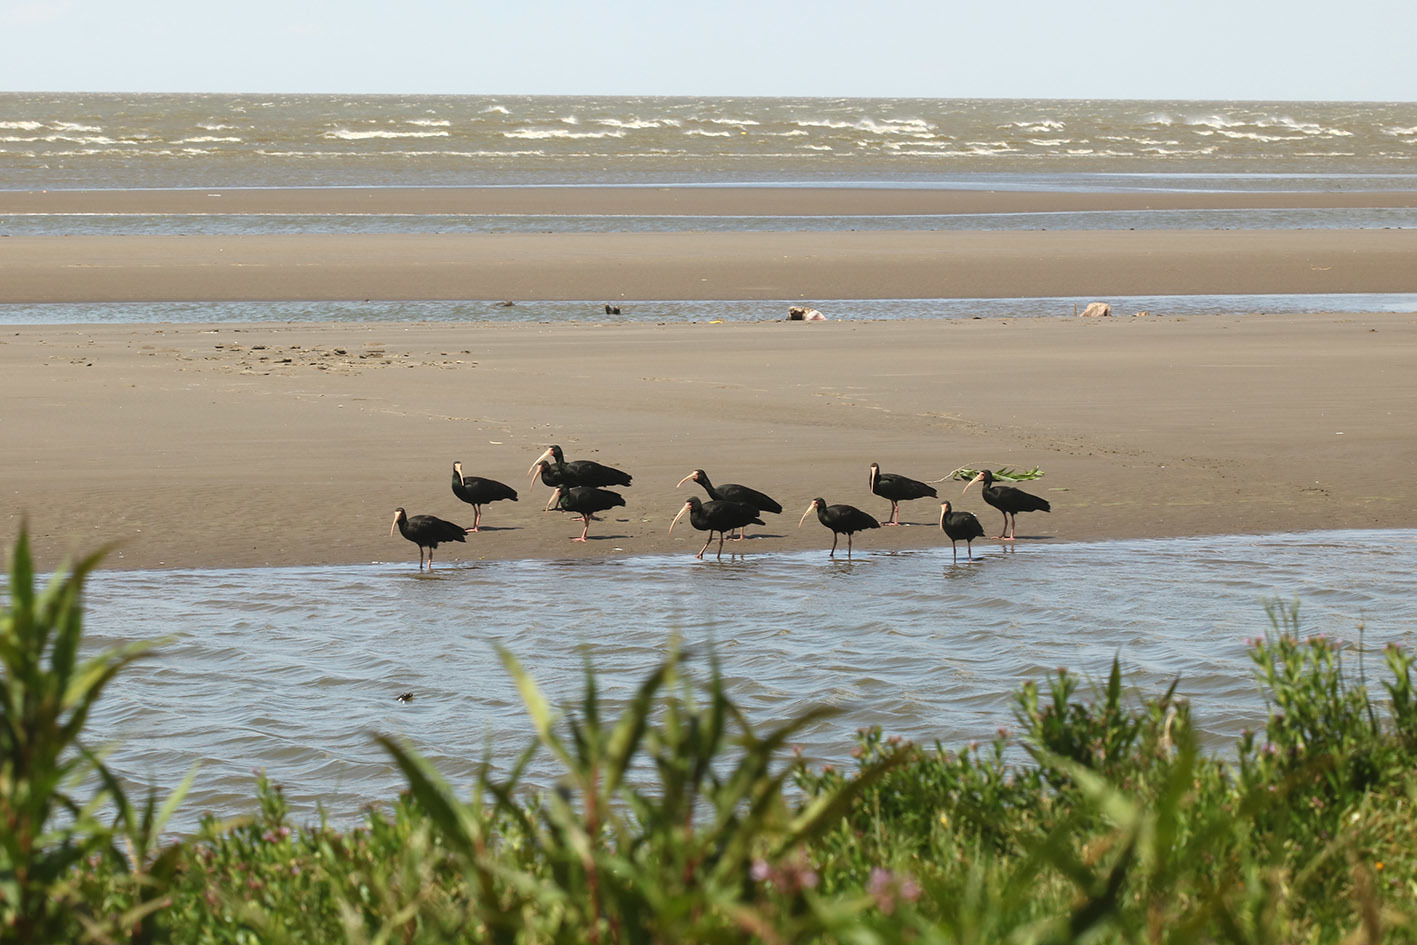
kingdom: Animalia
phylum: Chordata
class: Aves
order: Pelecaniformes
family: Threskiornithidae
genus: Phimosus
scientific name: Phimosus infuscatus
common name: Bare-faced ibis
